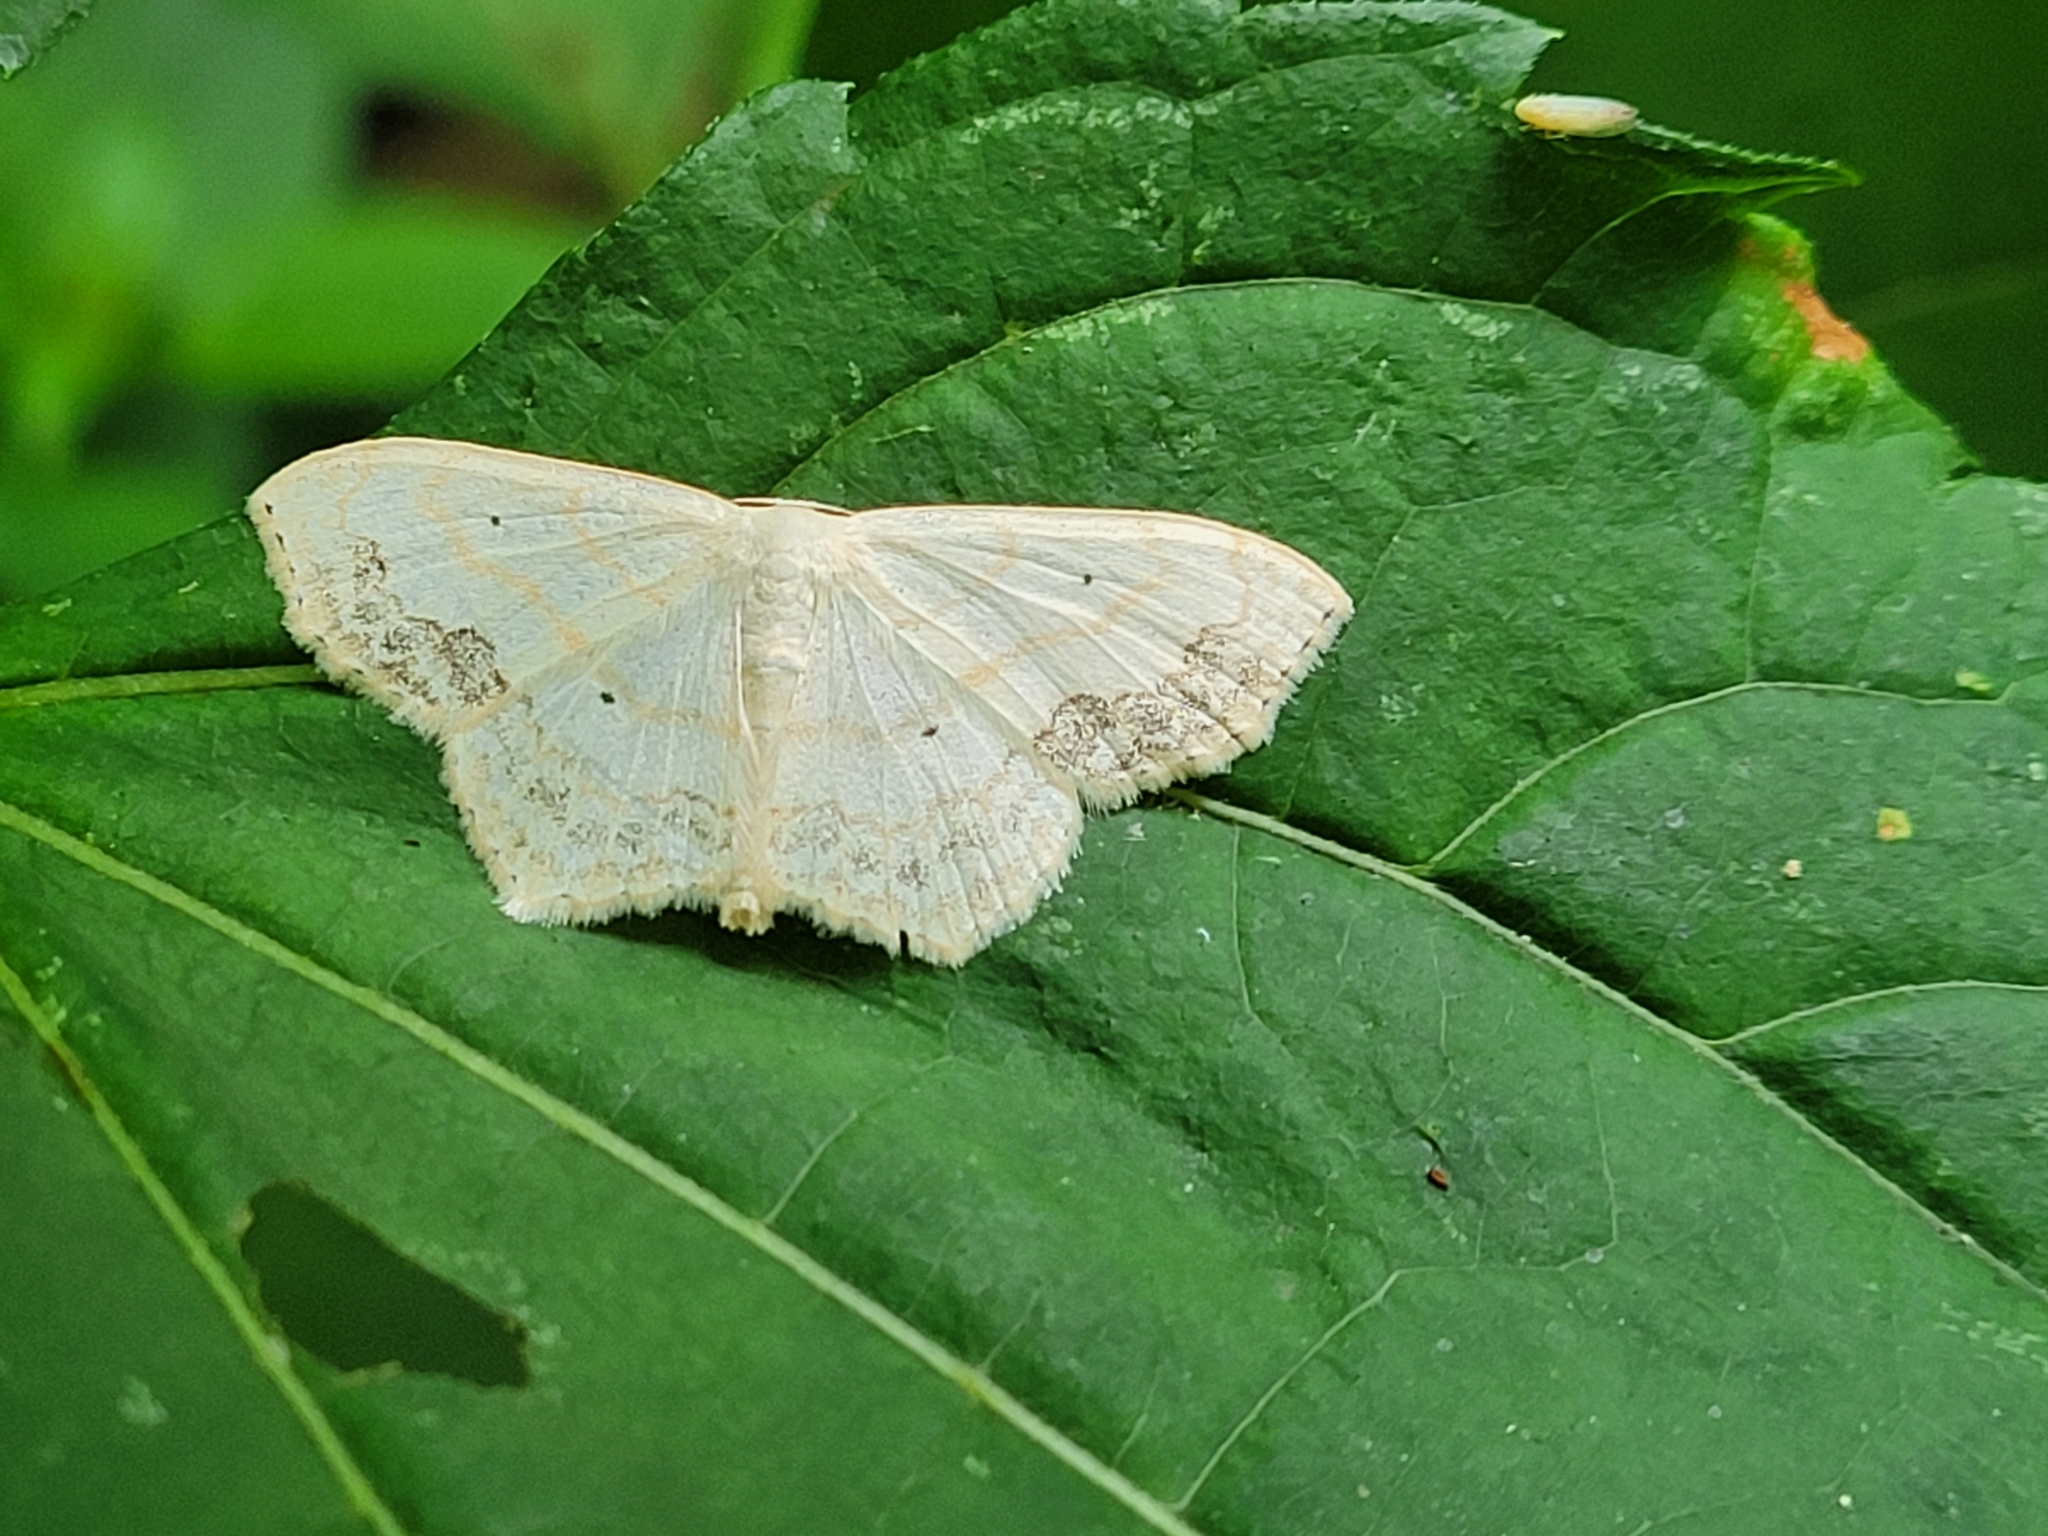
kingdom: Animalia
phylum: Arthropoda
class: Insecta
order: Lepidoptera
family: Geometridae
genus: Scopula
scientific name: Scopula limboundata
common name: Large lace border
